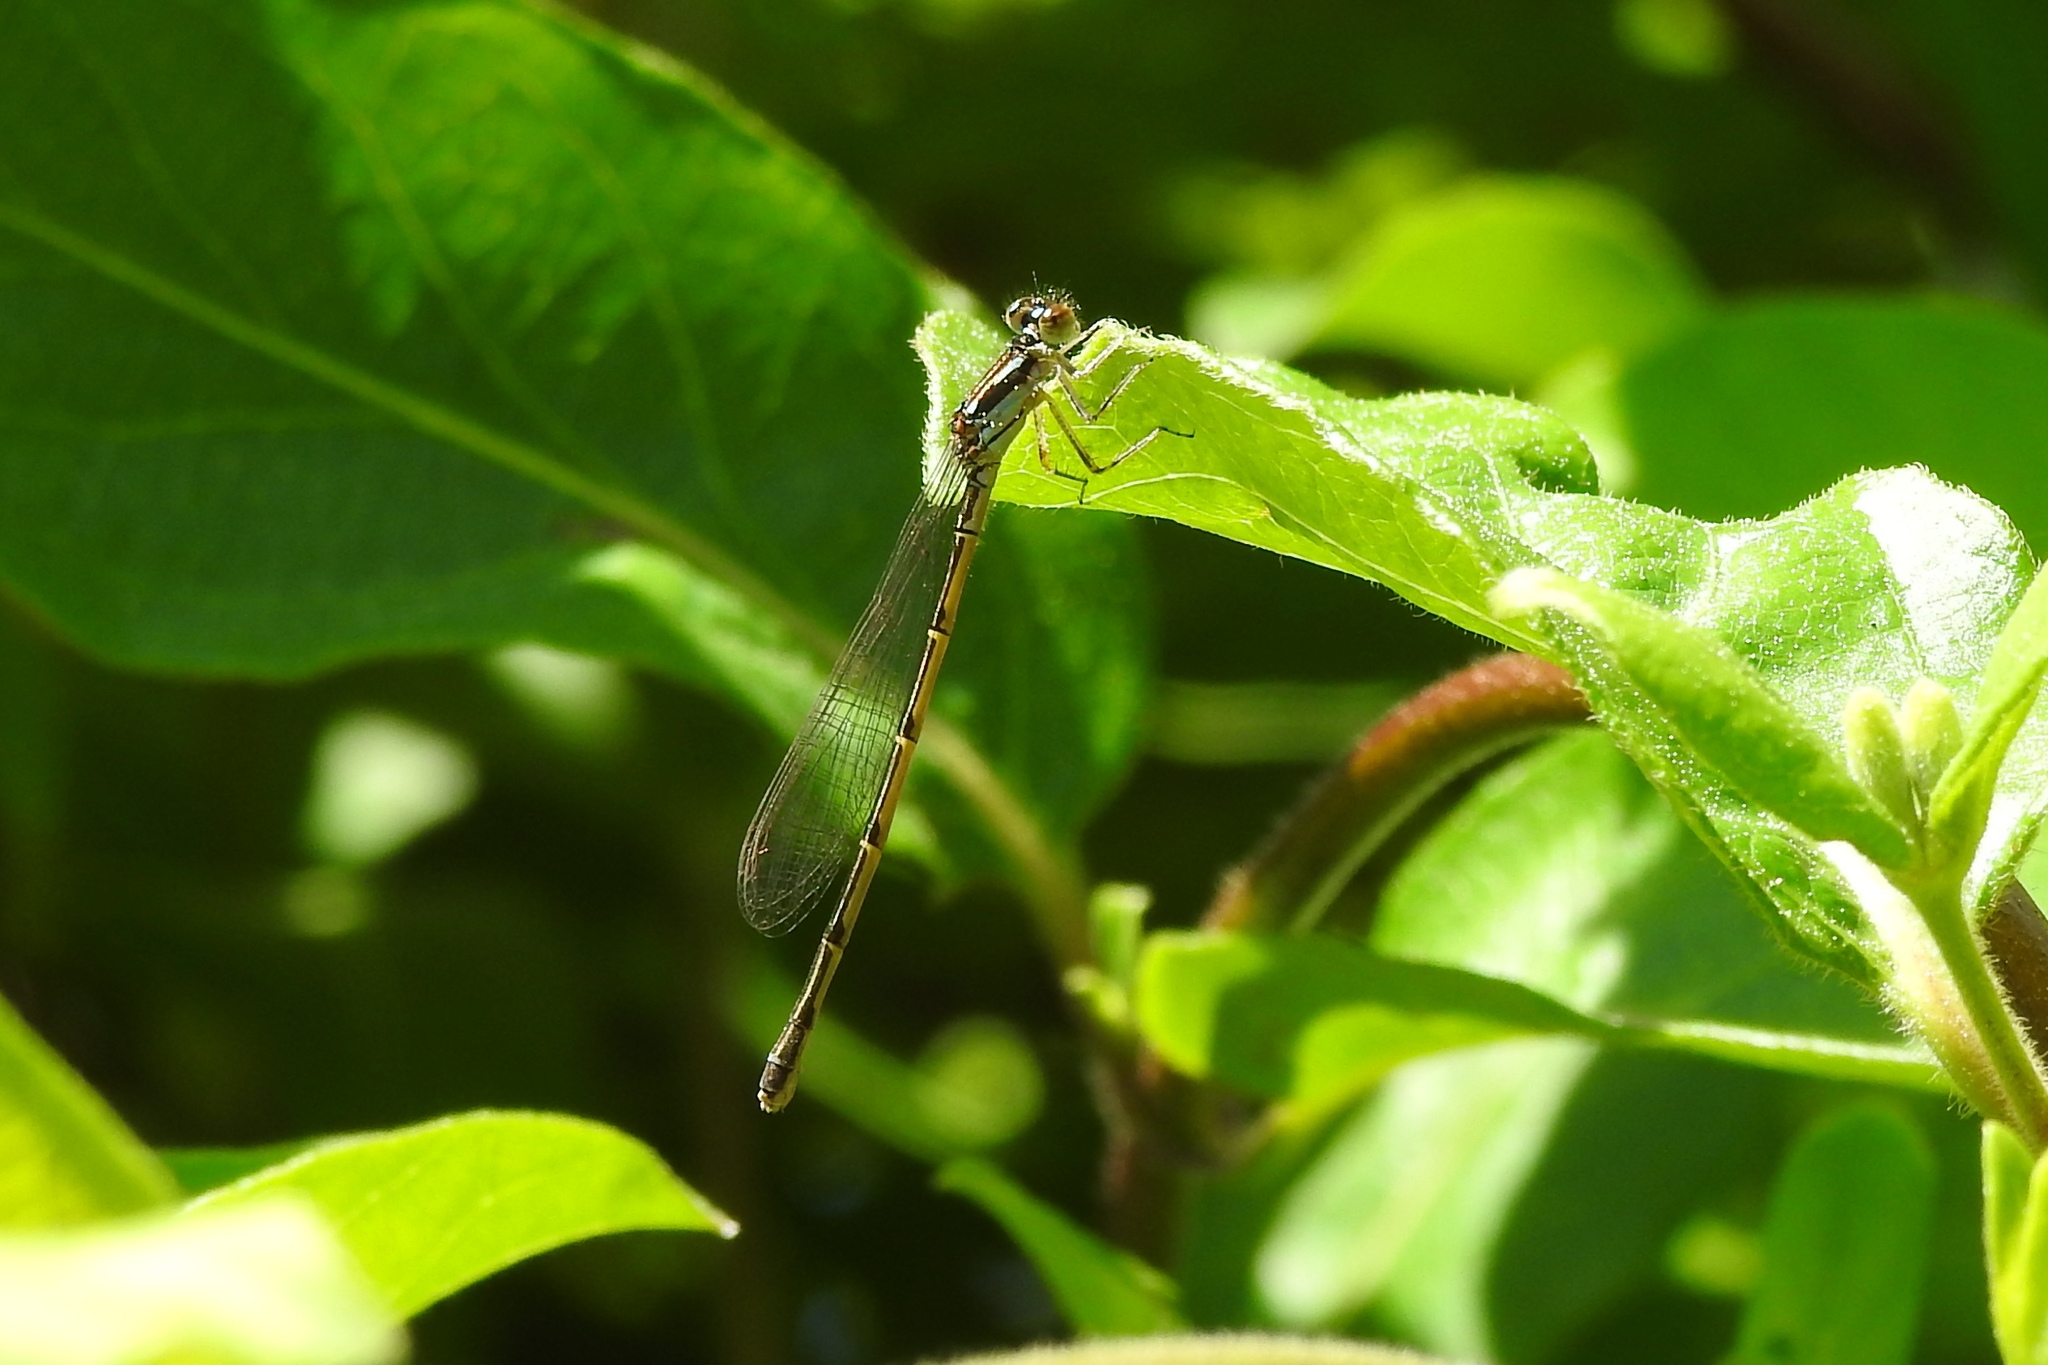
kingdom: Animalia
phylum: Arthropoda
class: Insecta
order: Odonata
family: Coenagrionidae
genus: Ischnura
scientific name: Ischnura posita
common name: Fragile forktail
